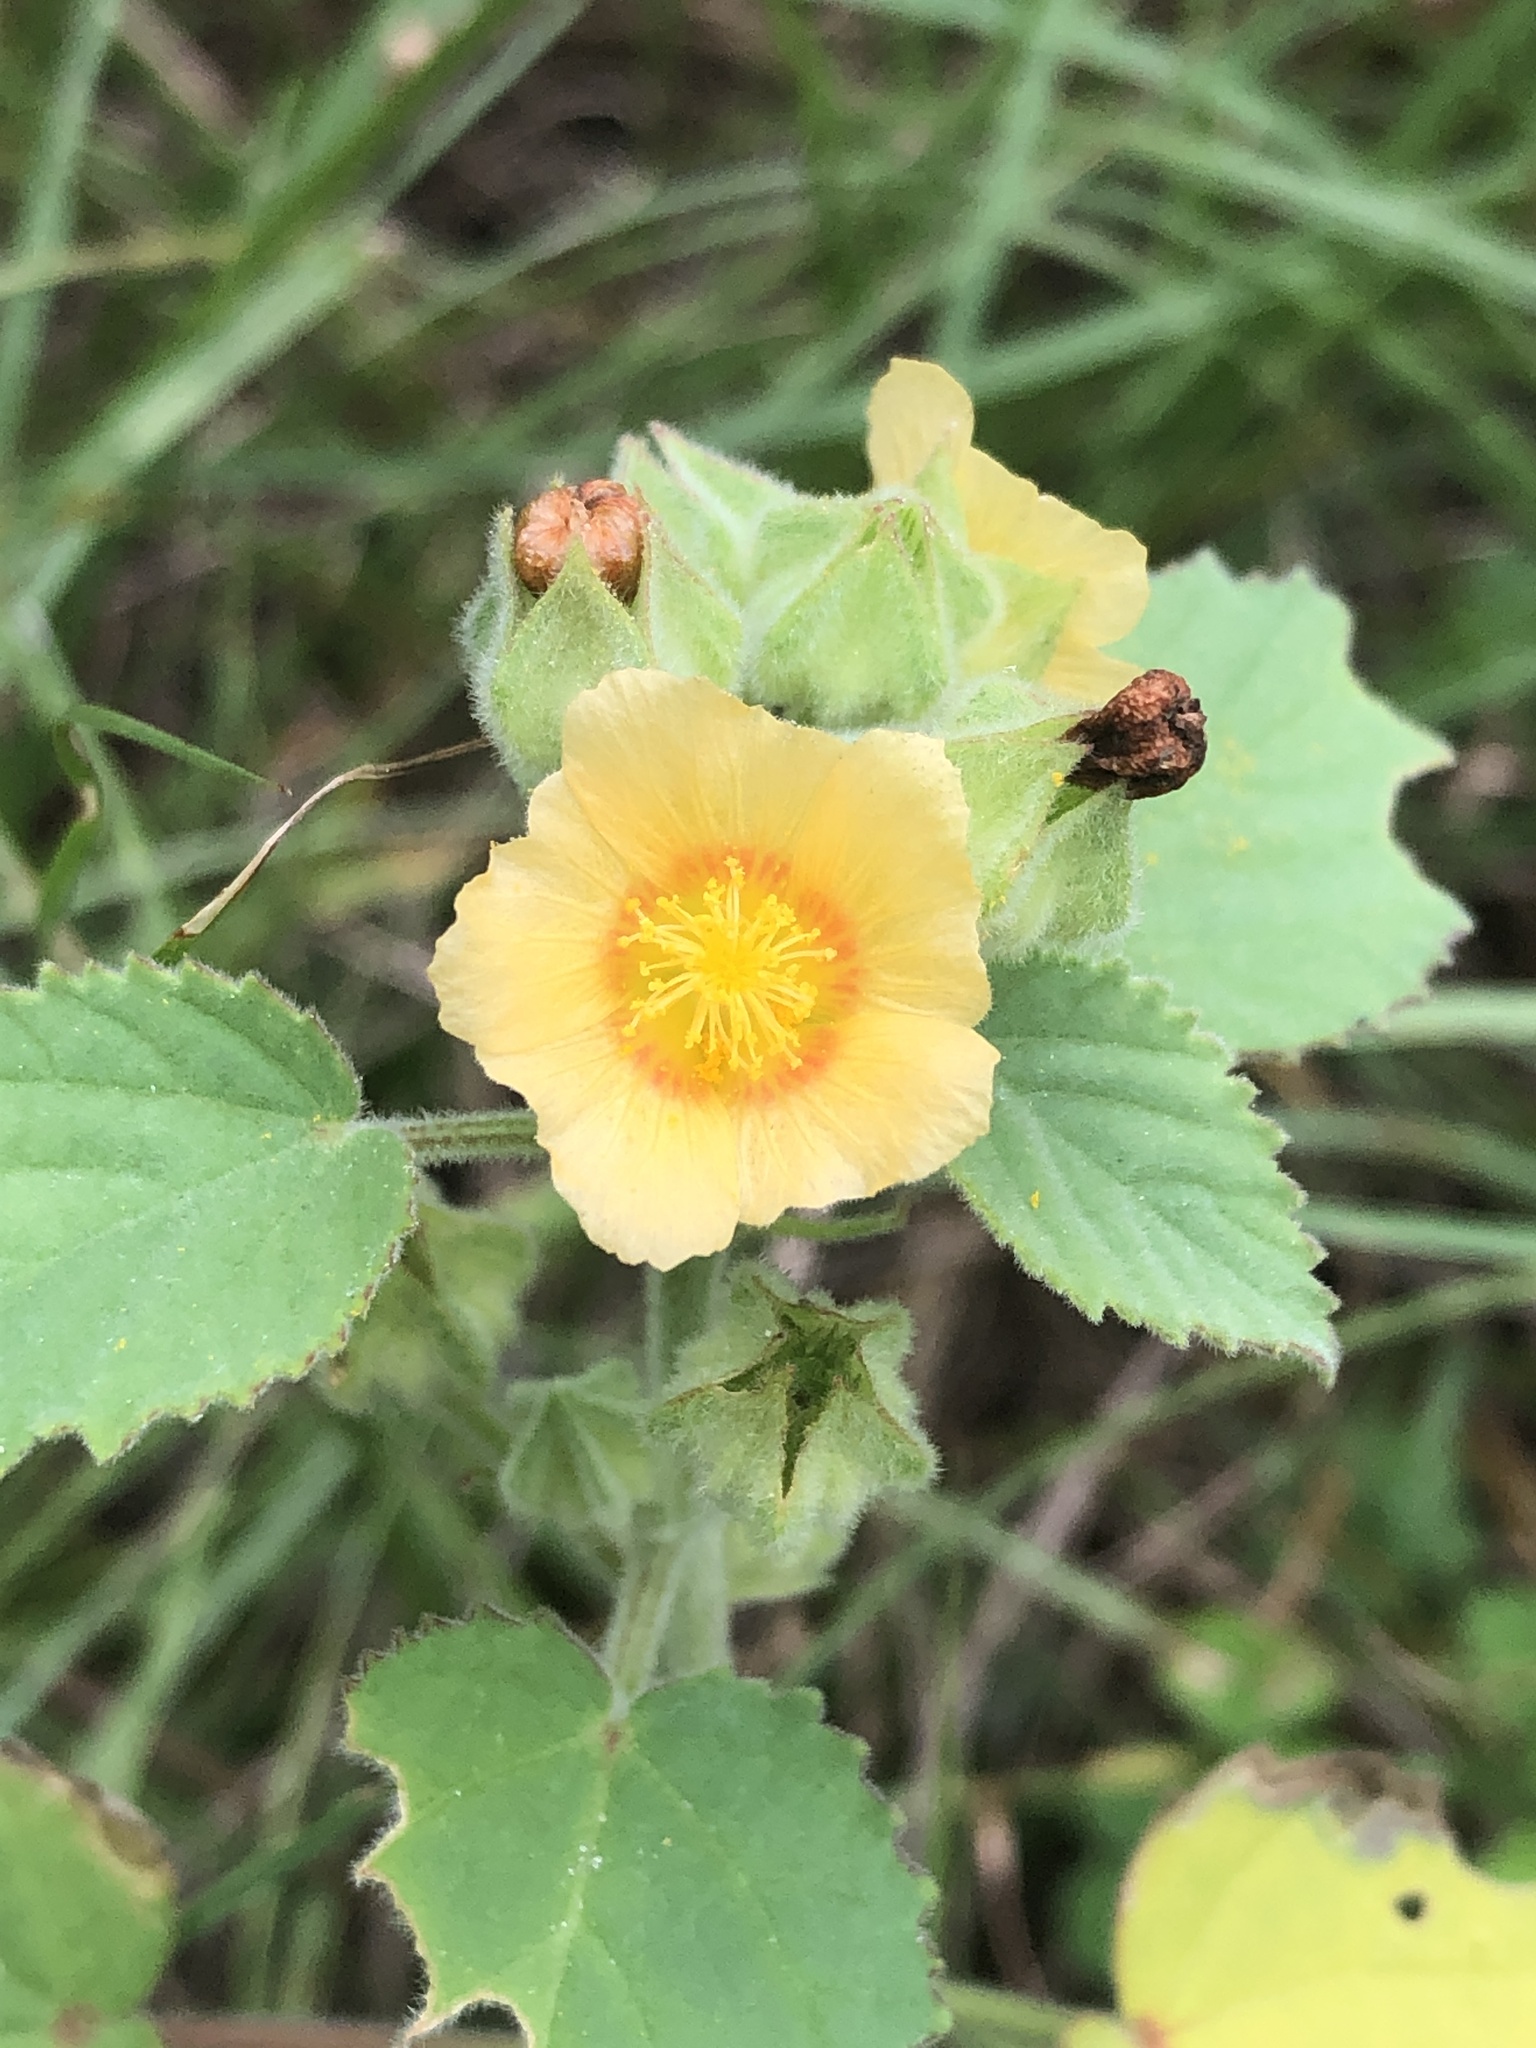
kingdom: Plantae
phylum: Tracheophyta
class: Magnoliopsida
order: Malvales
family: Malvaceae
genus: Sida
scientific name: Sida cordifolia
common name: Ilima
